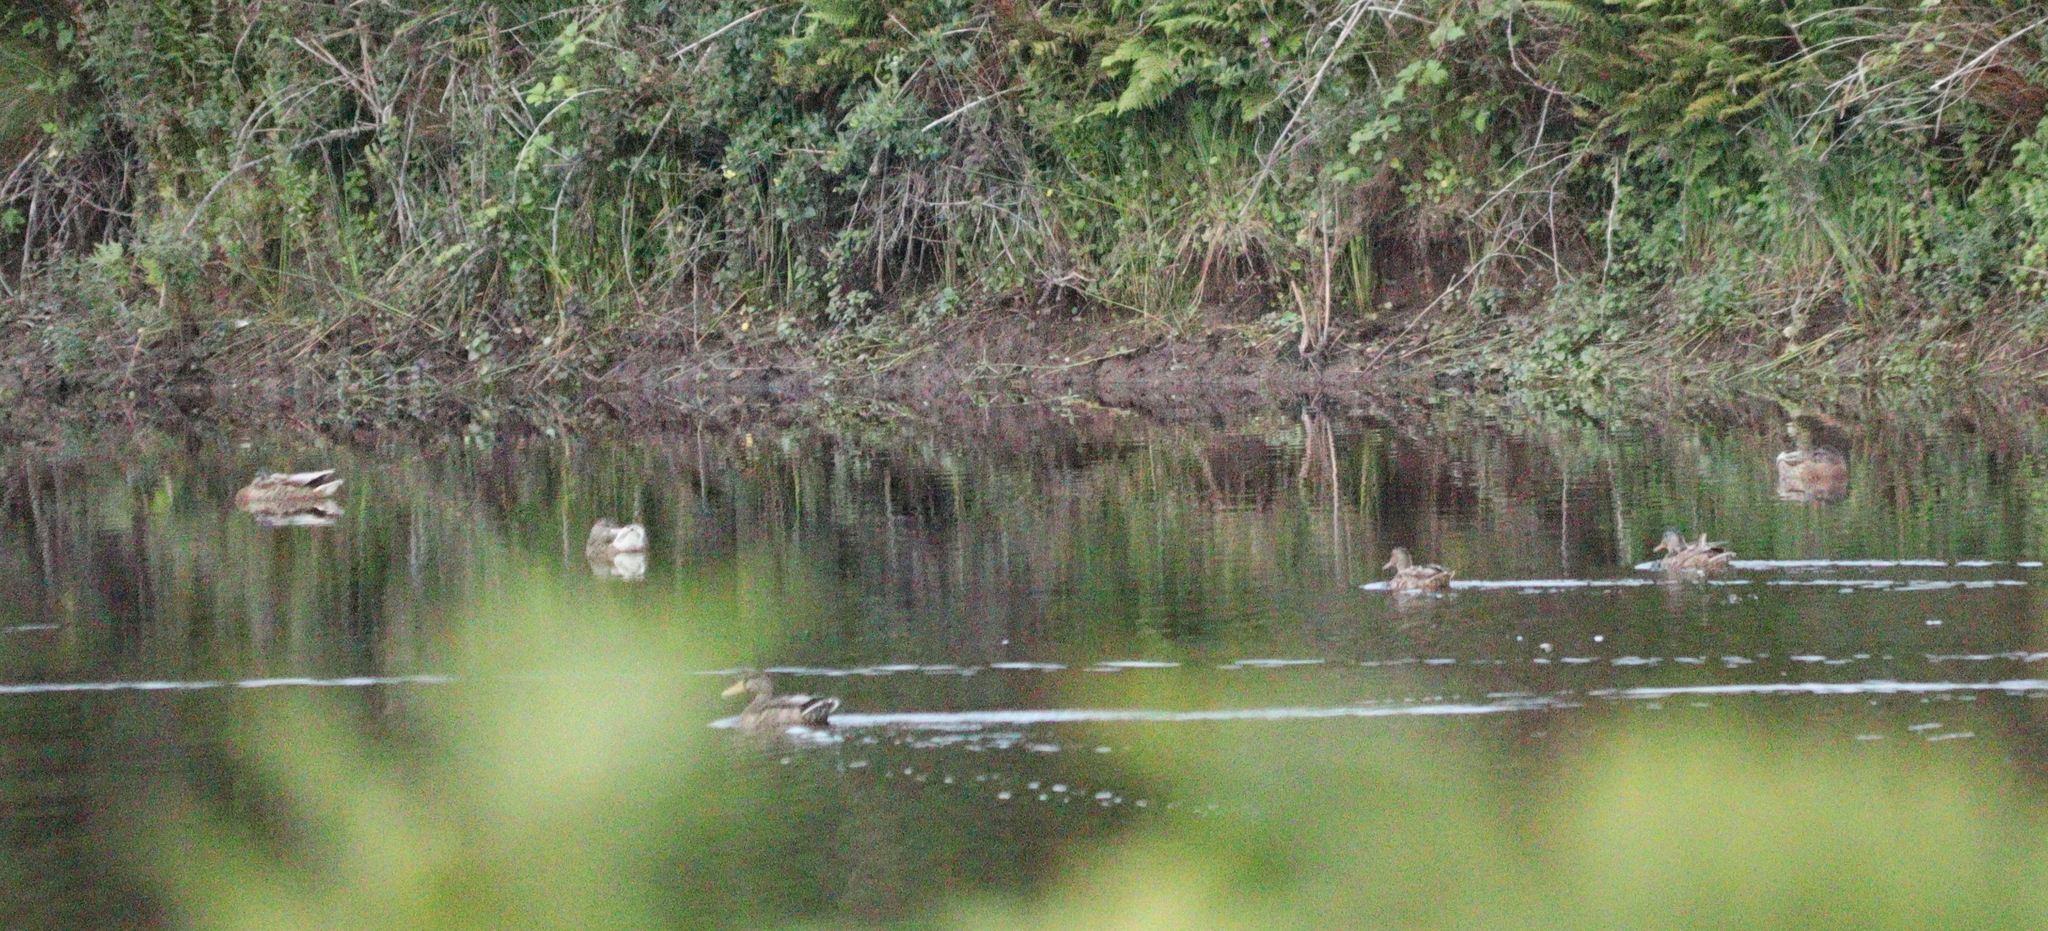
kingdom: Animalia
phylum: Chordata
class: Aves
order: Anseriformes
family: Anatidae
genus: Anas
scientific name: Anas platyrhynchos
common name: Mallard
